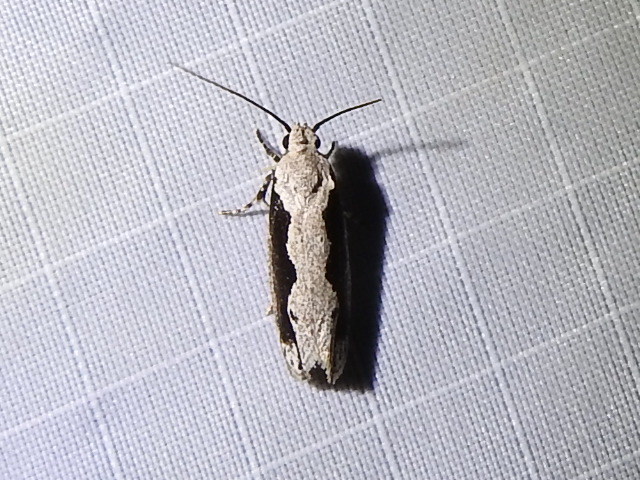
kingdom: Animalia
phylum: Arthropoda
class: Insecta
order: Lepidoptera
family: Ethmiidae
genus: Ethmia
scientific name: Ethmia semiombra
